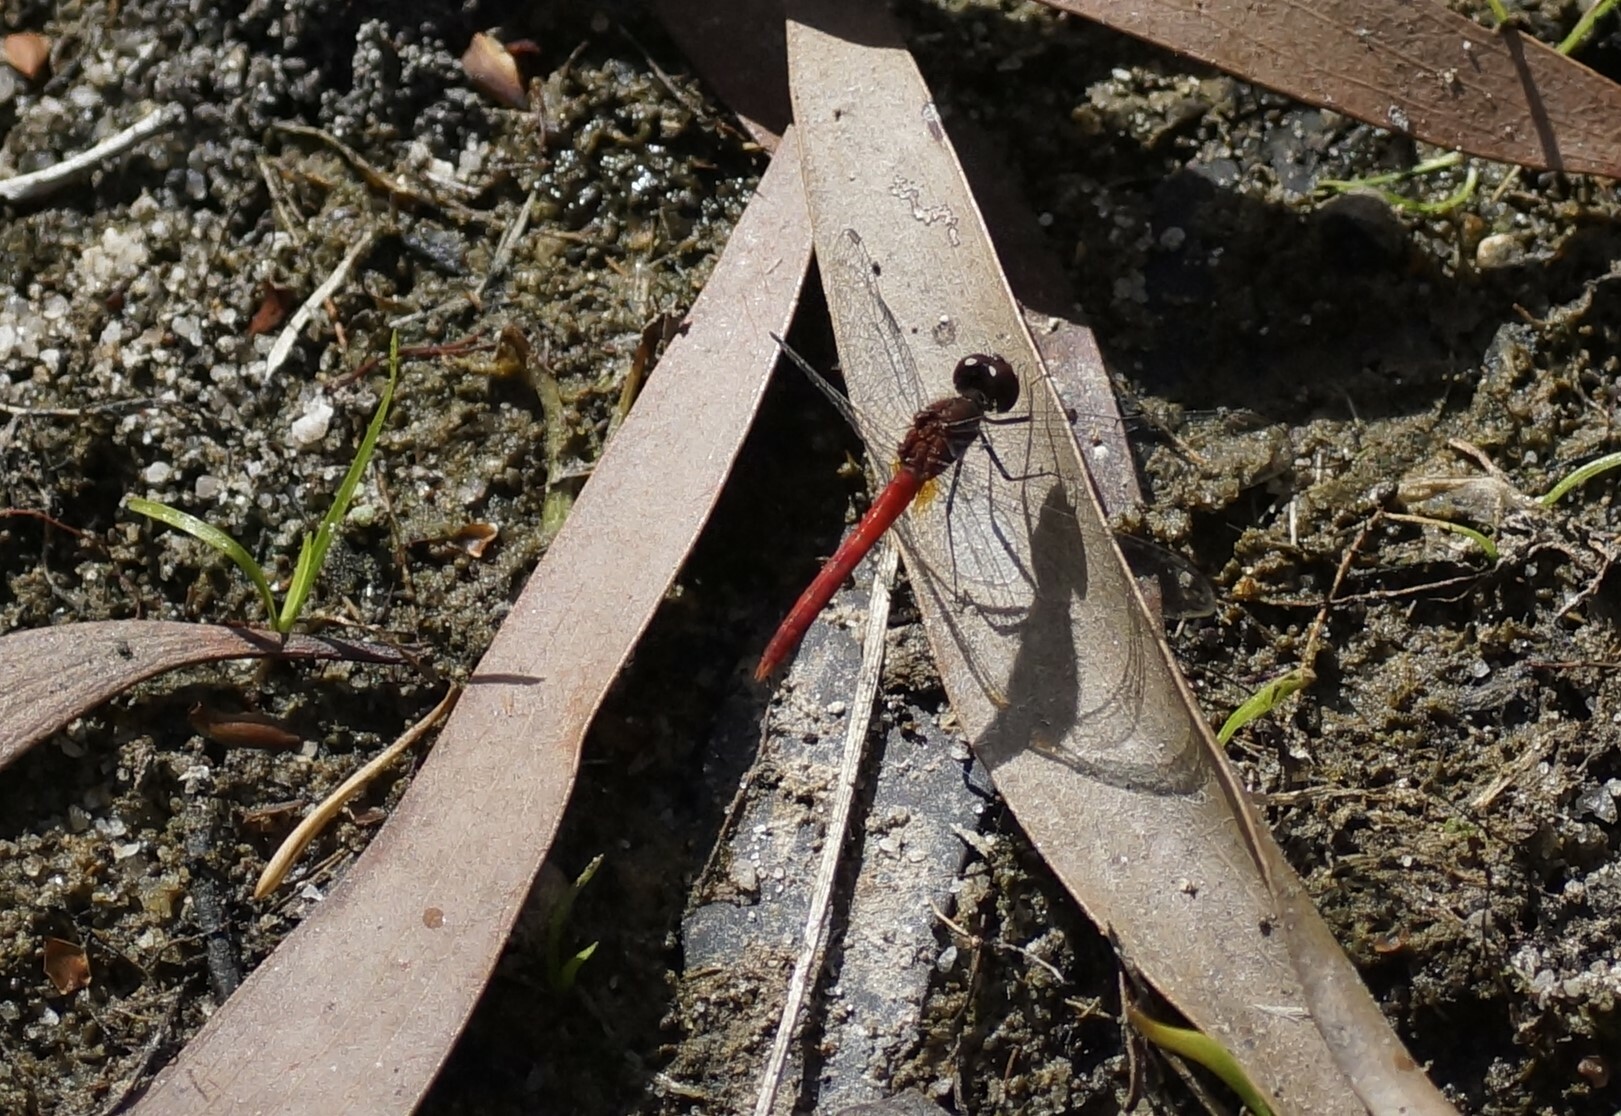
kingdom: Animalia
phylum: Arthropoda
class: Insecta
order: Odonata
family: Libellulidae
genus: Nannodiplax
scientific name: Nannodiplax rubra
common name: Pygmy percher
